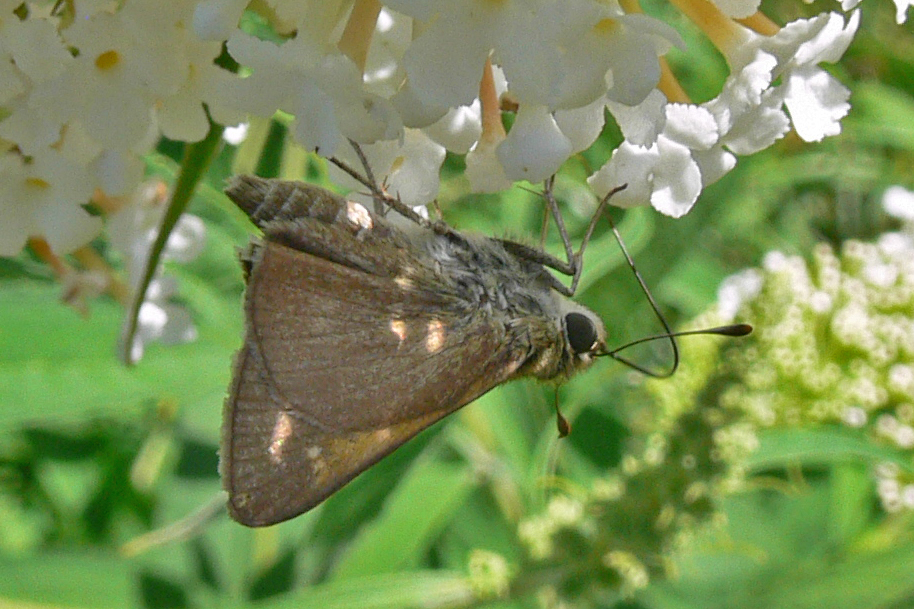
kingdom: Animalia
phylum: Arthropoda
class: Insecta
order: Lepidoptera
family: Hesperiidae
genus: Polites
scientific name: Polites themistocles
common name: Tawny-edged skipper
